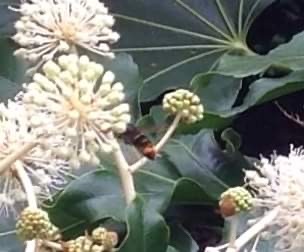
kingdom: Animalia
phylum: Arthropoda
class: Insecta
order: Hymenoptera
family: Vespidae
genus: Vespa
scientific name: Vespa velutina
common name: Asian hornet
